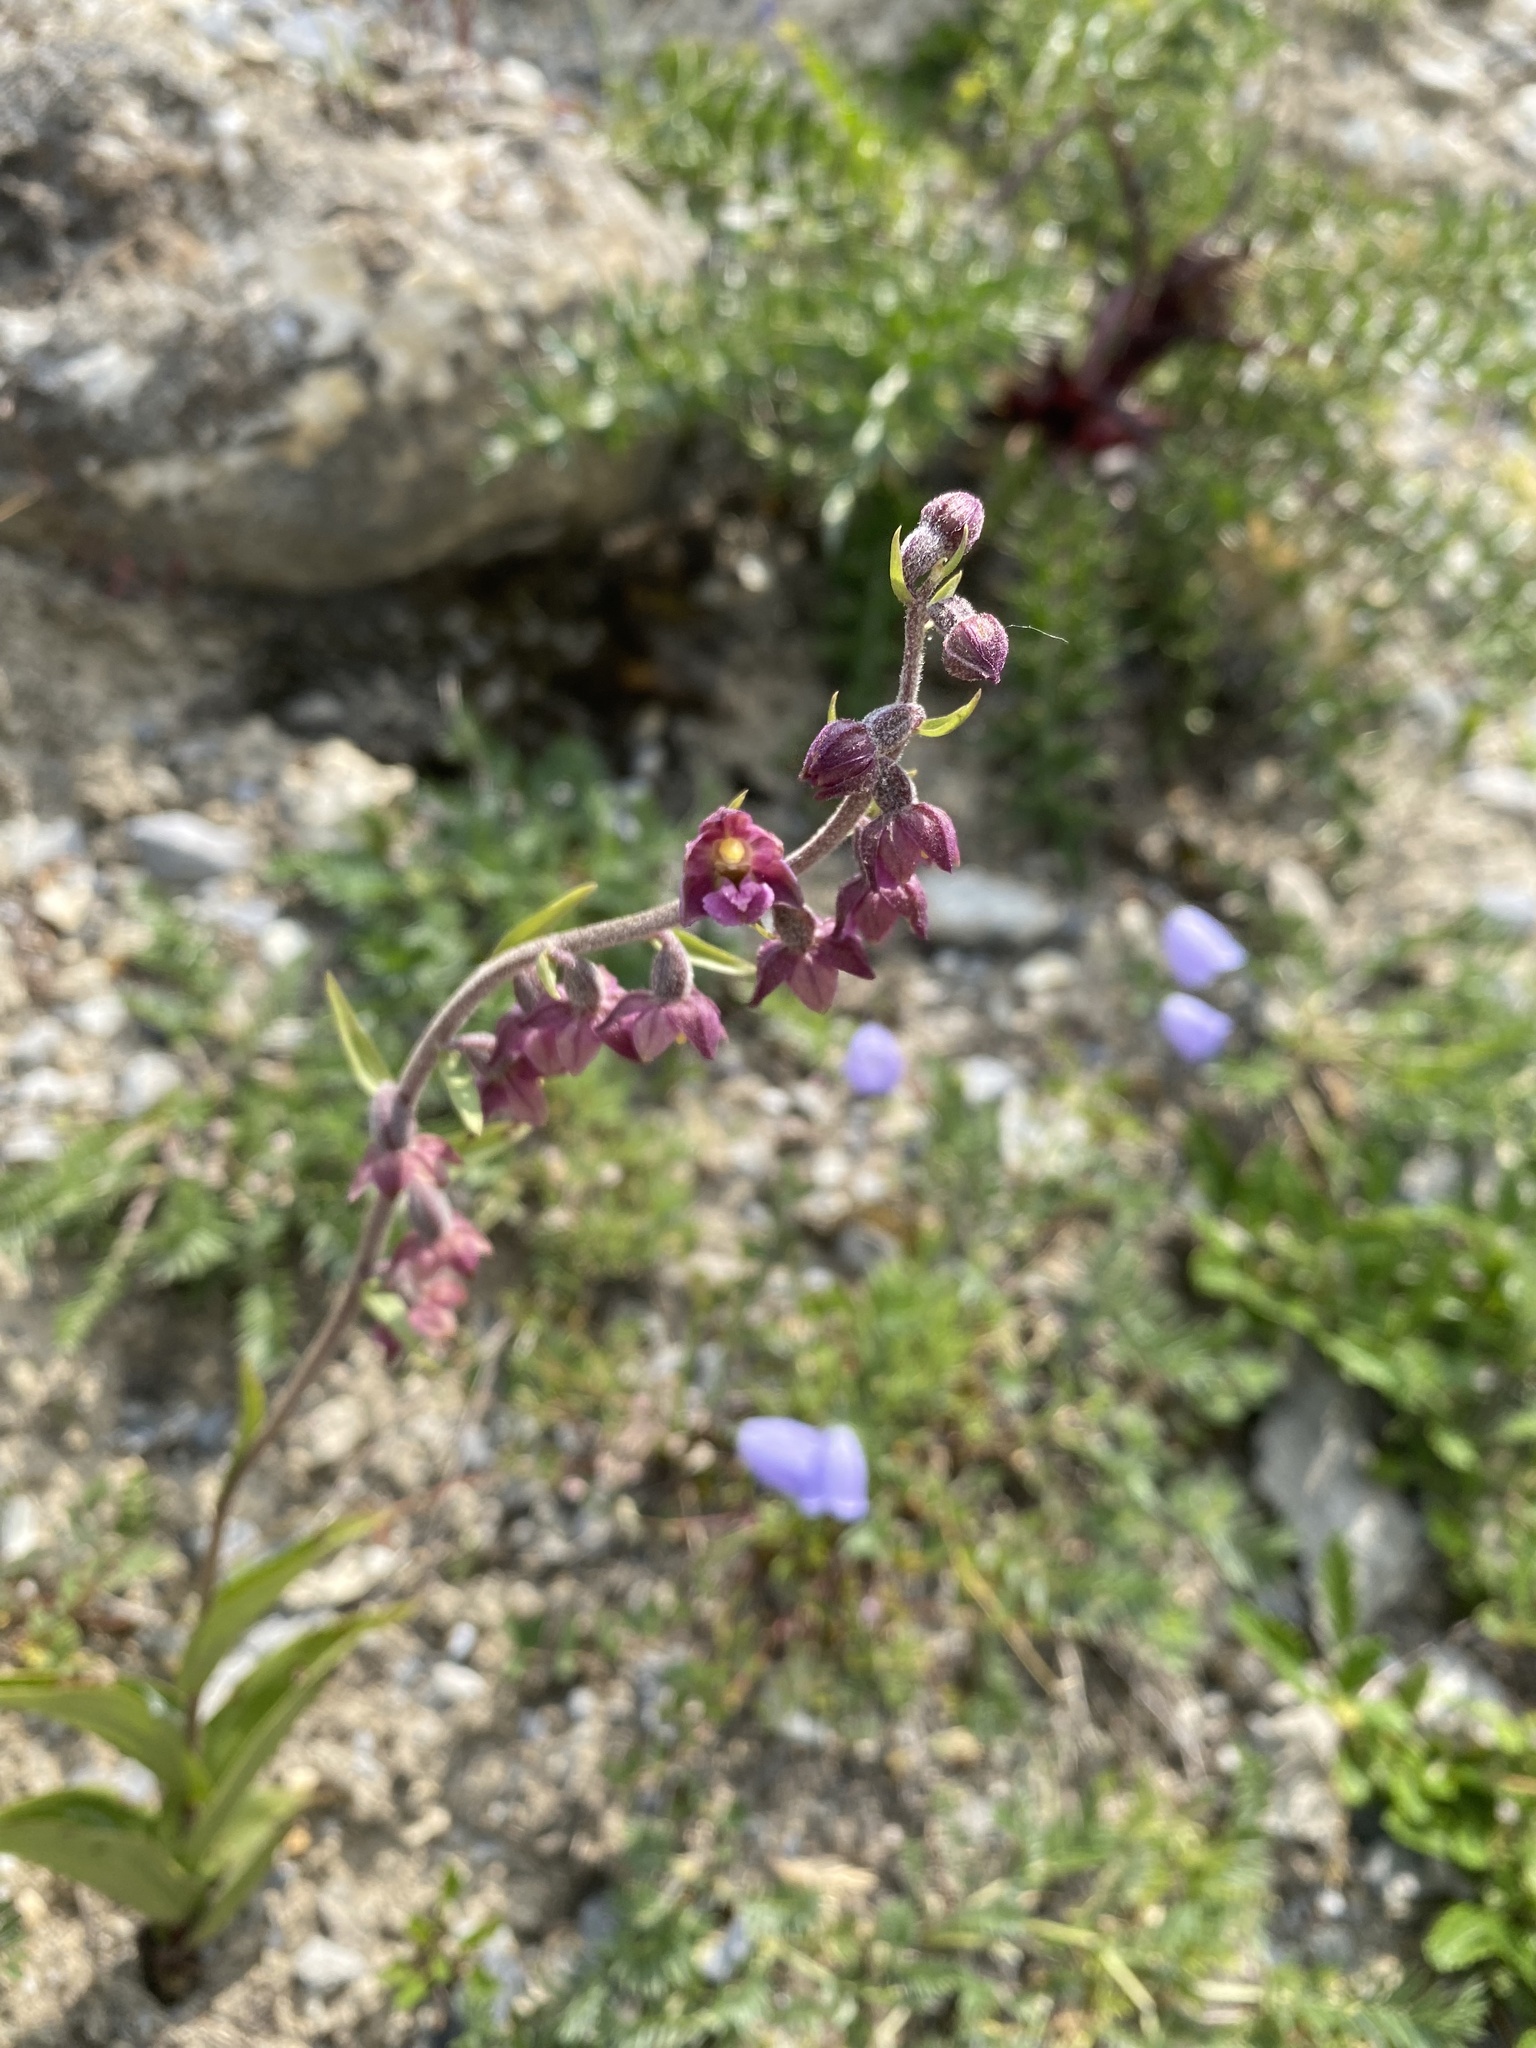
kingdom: Plantae
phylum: Tracheophyta
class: Liliopsida
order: Asparagales
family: Orchidaceae
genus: Epipactis
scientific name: Epipactis atrorubens
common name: Dark-red helleborine
